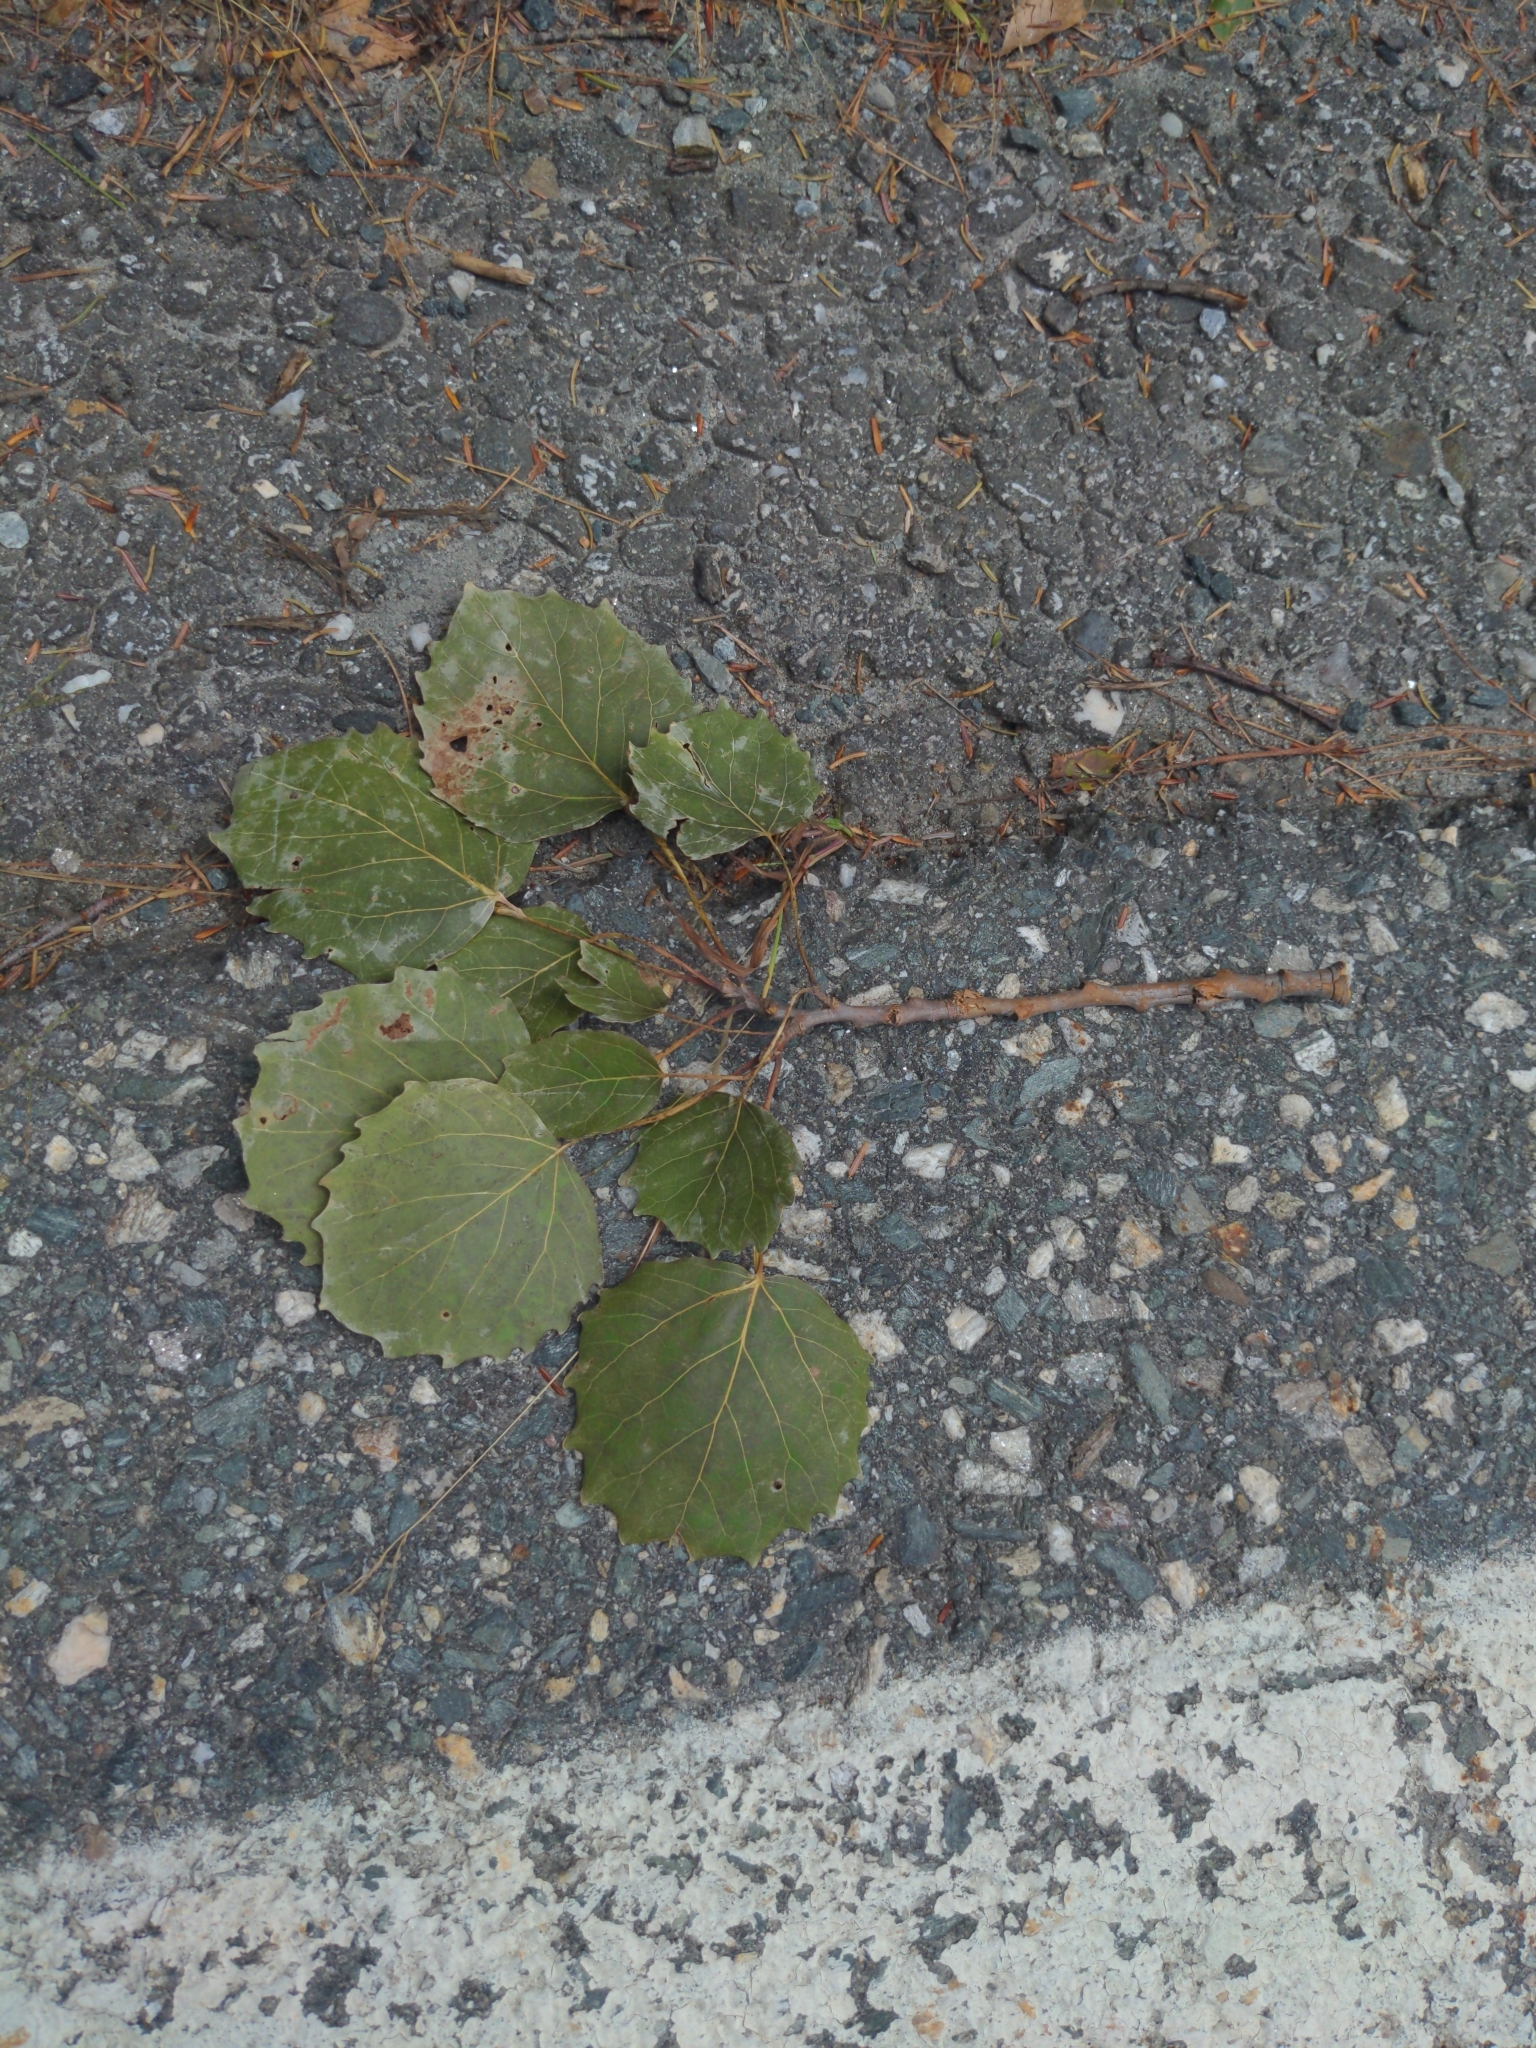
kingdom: Plantae
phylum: Tracheophyta
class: Magnoliopsida
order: Malpighiales
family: Salicaceae
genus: Populus
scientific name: Populus grandidentata
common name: Bigtooth aspen
